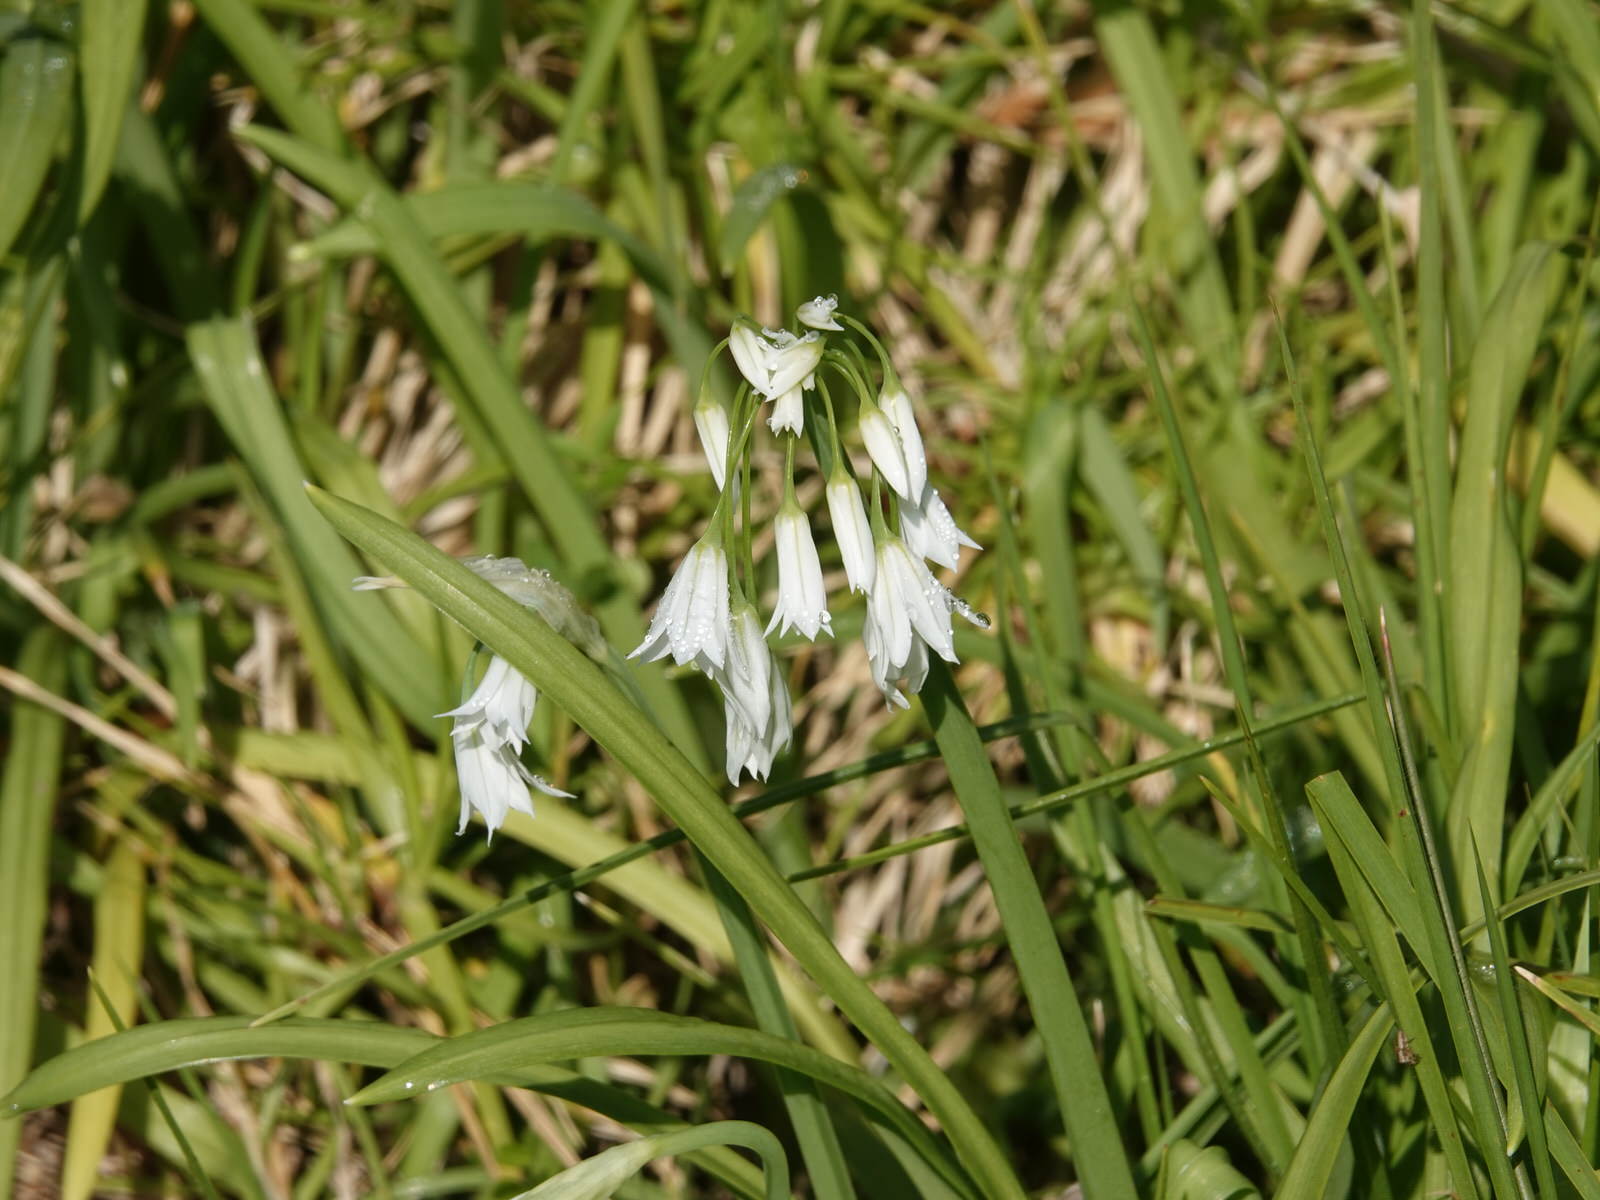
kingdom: Plantae
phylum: Tracheophyta
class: Liliopsida
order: Asparagales
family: Amaryllidaceae
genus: Allium
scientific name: Allium triquetrum
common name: Three-cornered garlic
